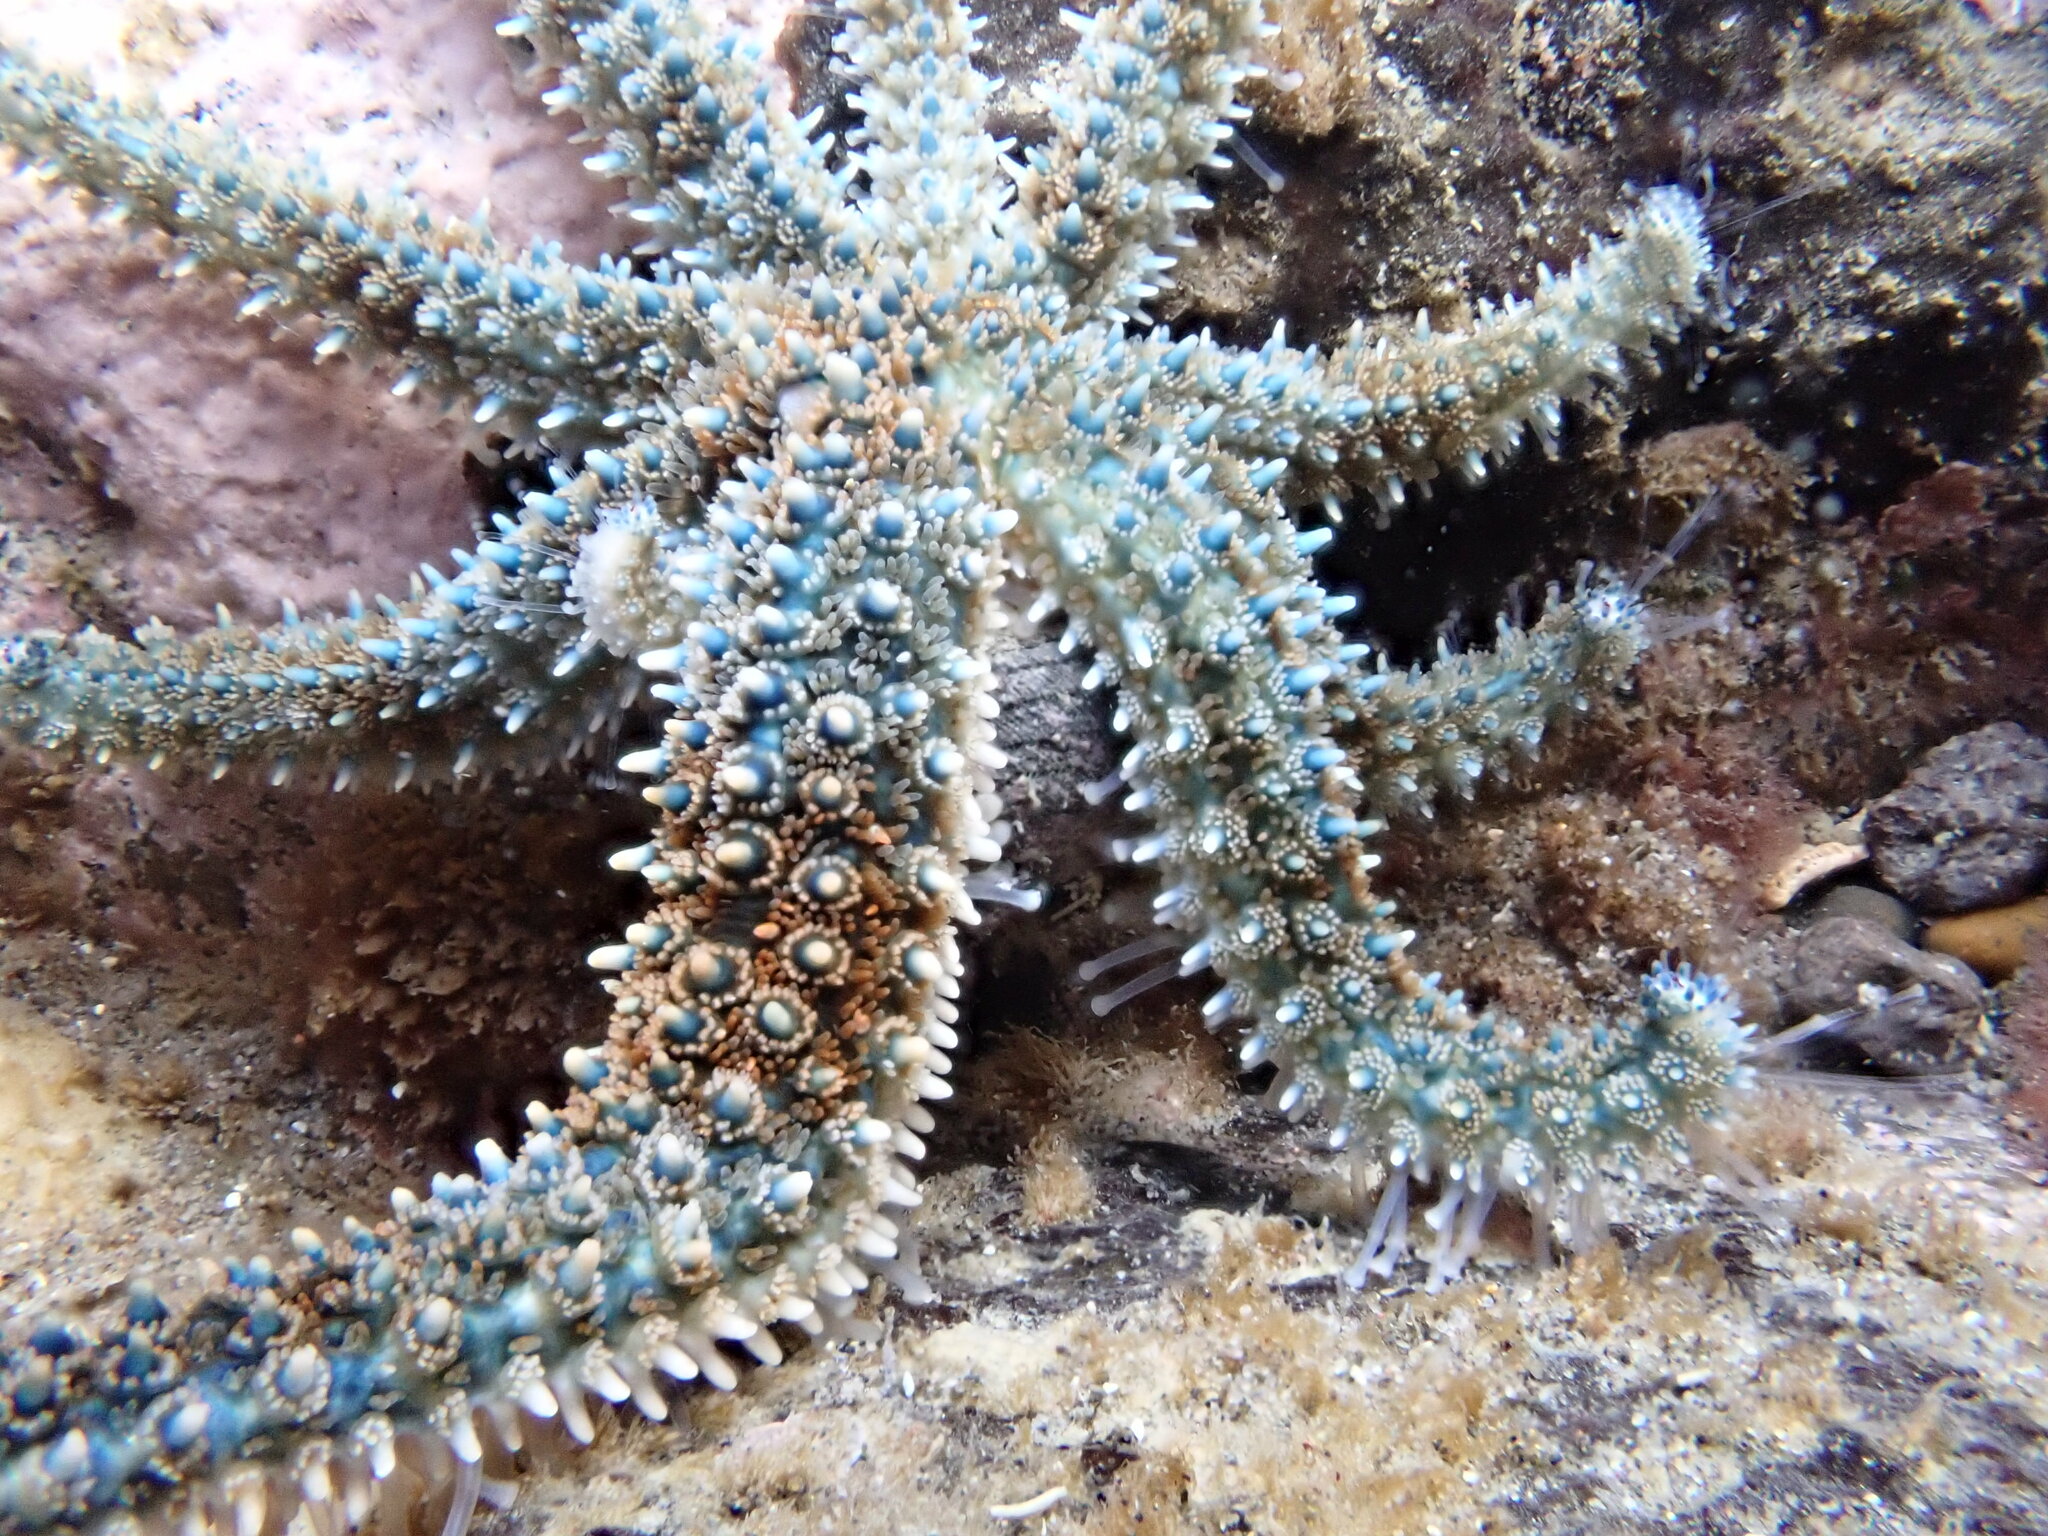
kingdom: Animalia
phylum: Echinodermata
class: Asteroidea
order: Forcipulatida
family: Asteriidae
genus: Coscinasterias
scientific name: Coscinasterias muricata
